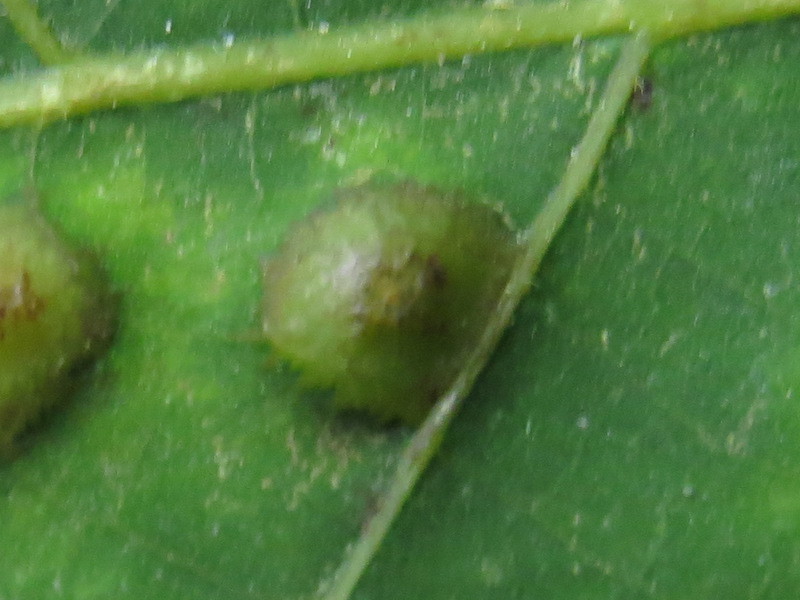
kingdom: Animalia
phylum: Arthropoda
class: Insecta
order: Diptera
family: Cecidomyiidae
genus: Caryomyia
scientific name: Caryomyia
